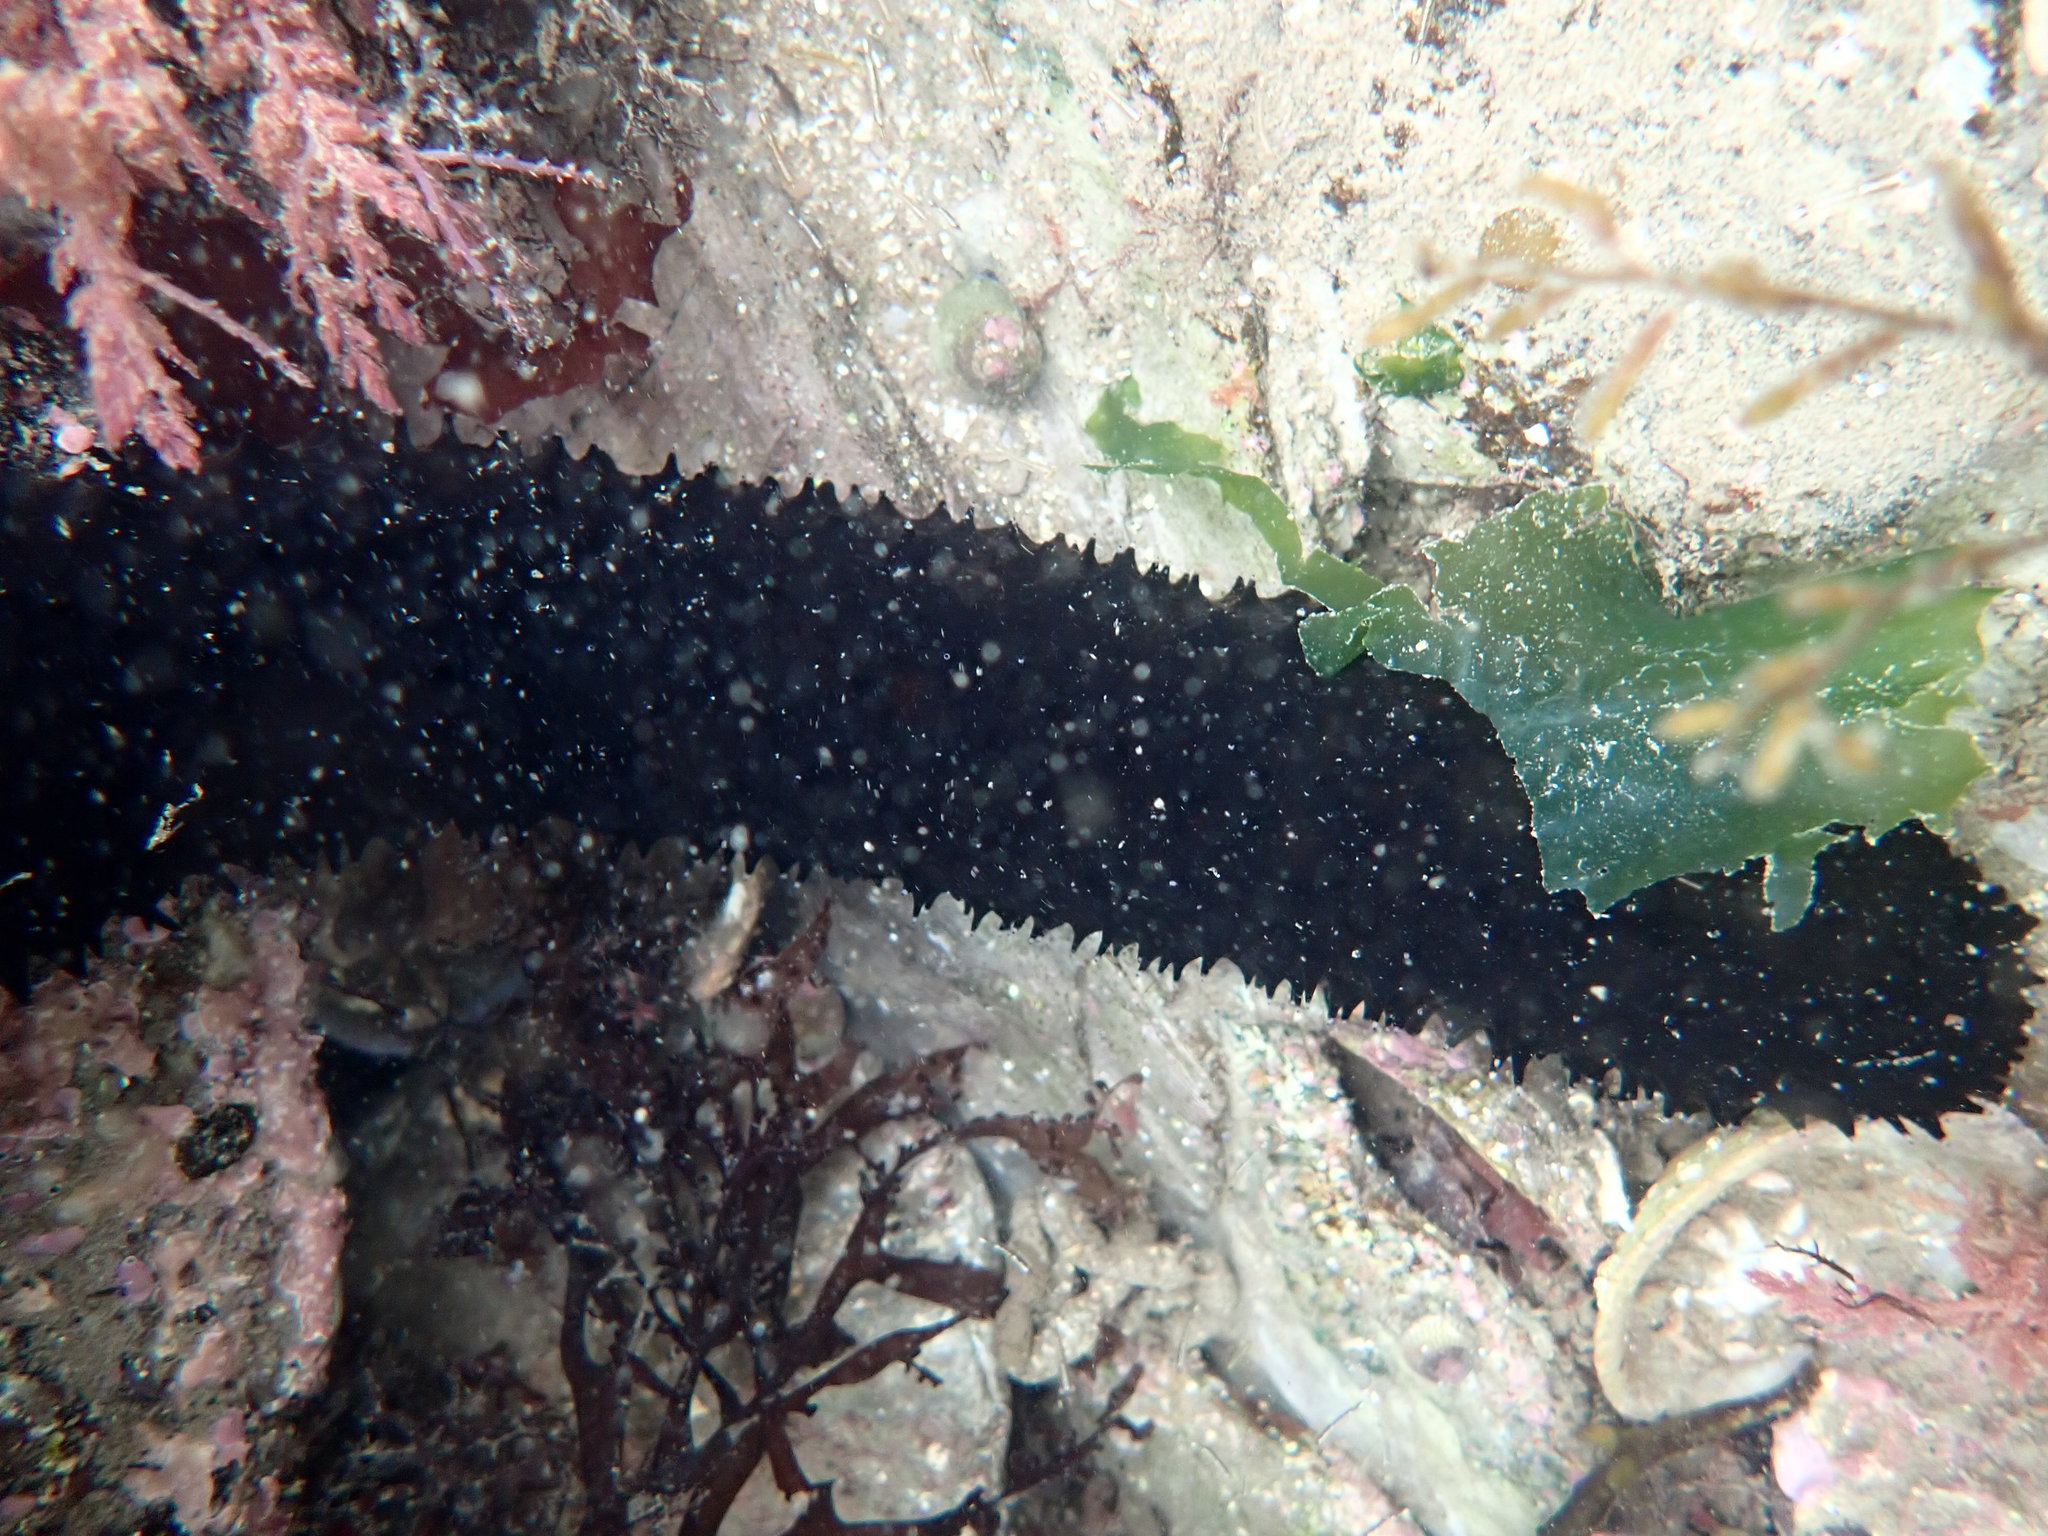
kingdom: Animalia
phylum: Echinodermata
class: Holothuroidea
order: Holothuriida
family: Holothuriidae
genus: Holothuria
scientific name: Holothuria forskali
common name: Black sea cucumber
